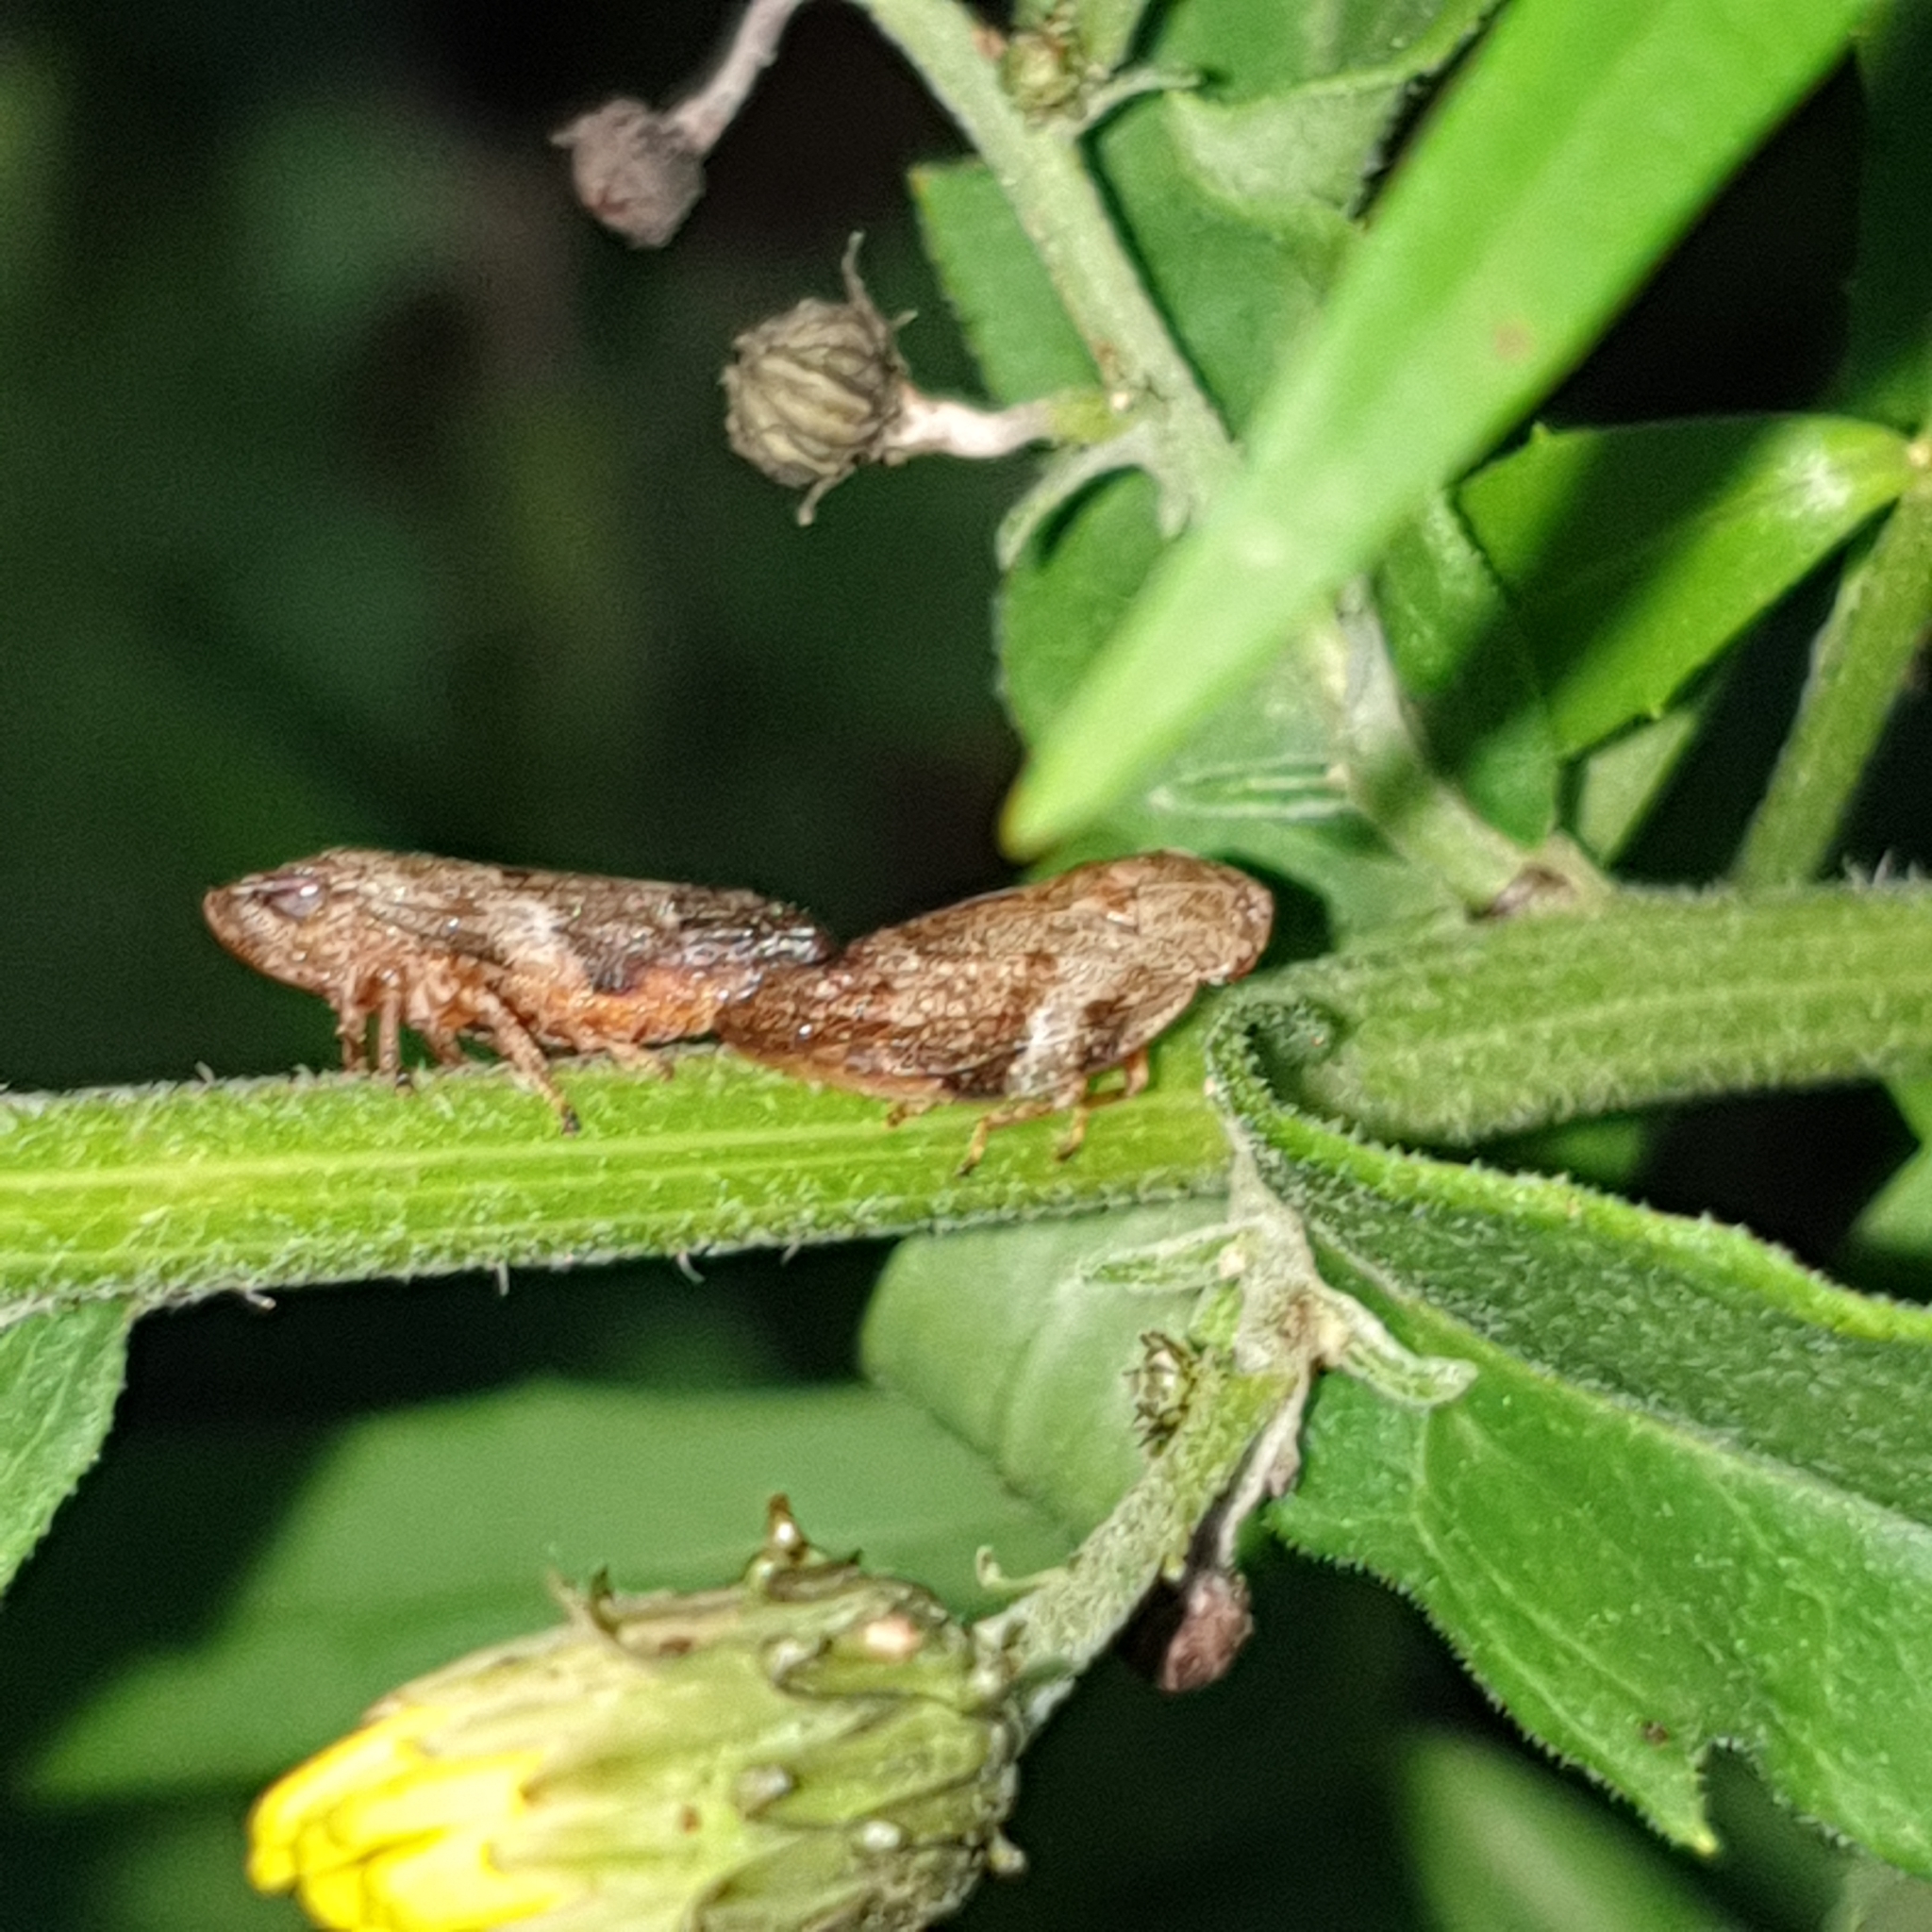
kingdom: Animalia
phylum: Arthropoda
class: Insecta
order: Hemiptera
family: Aphrophoridae
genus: Aphrophora
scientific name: Aphrophora alni
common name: European alder spittlebug
